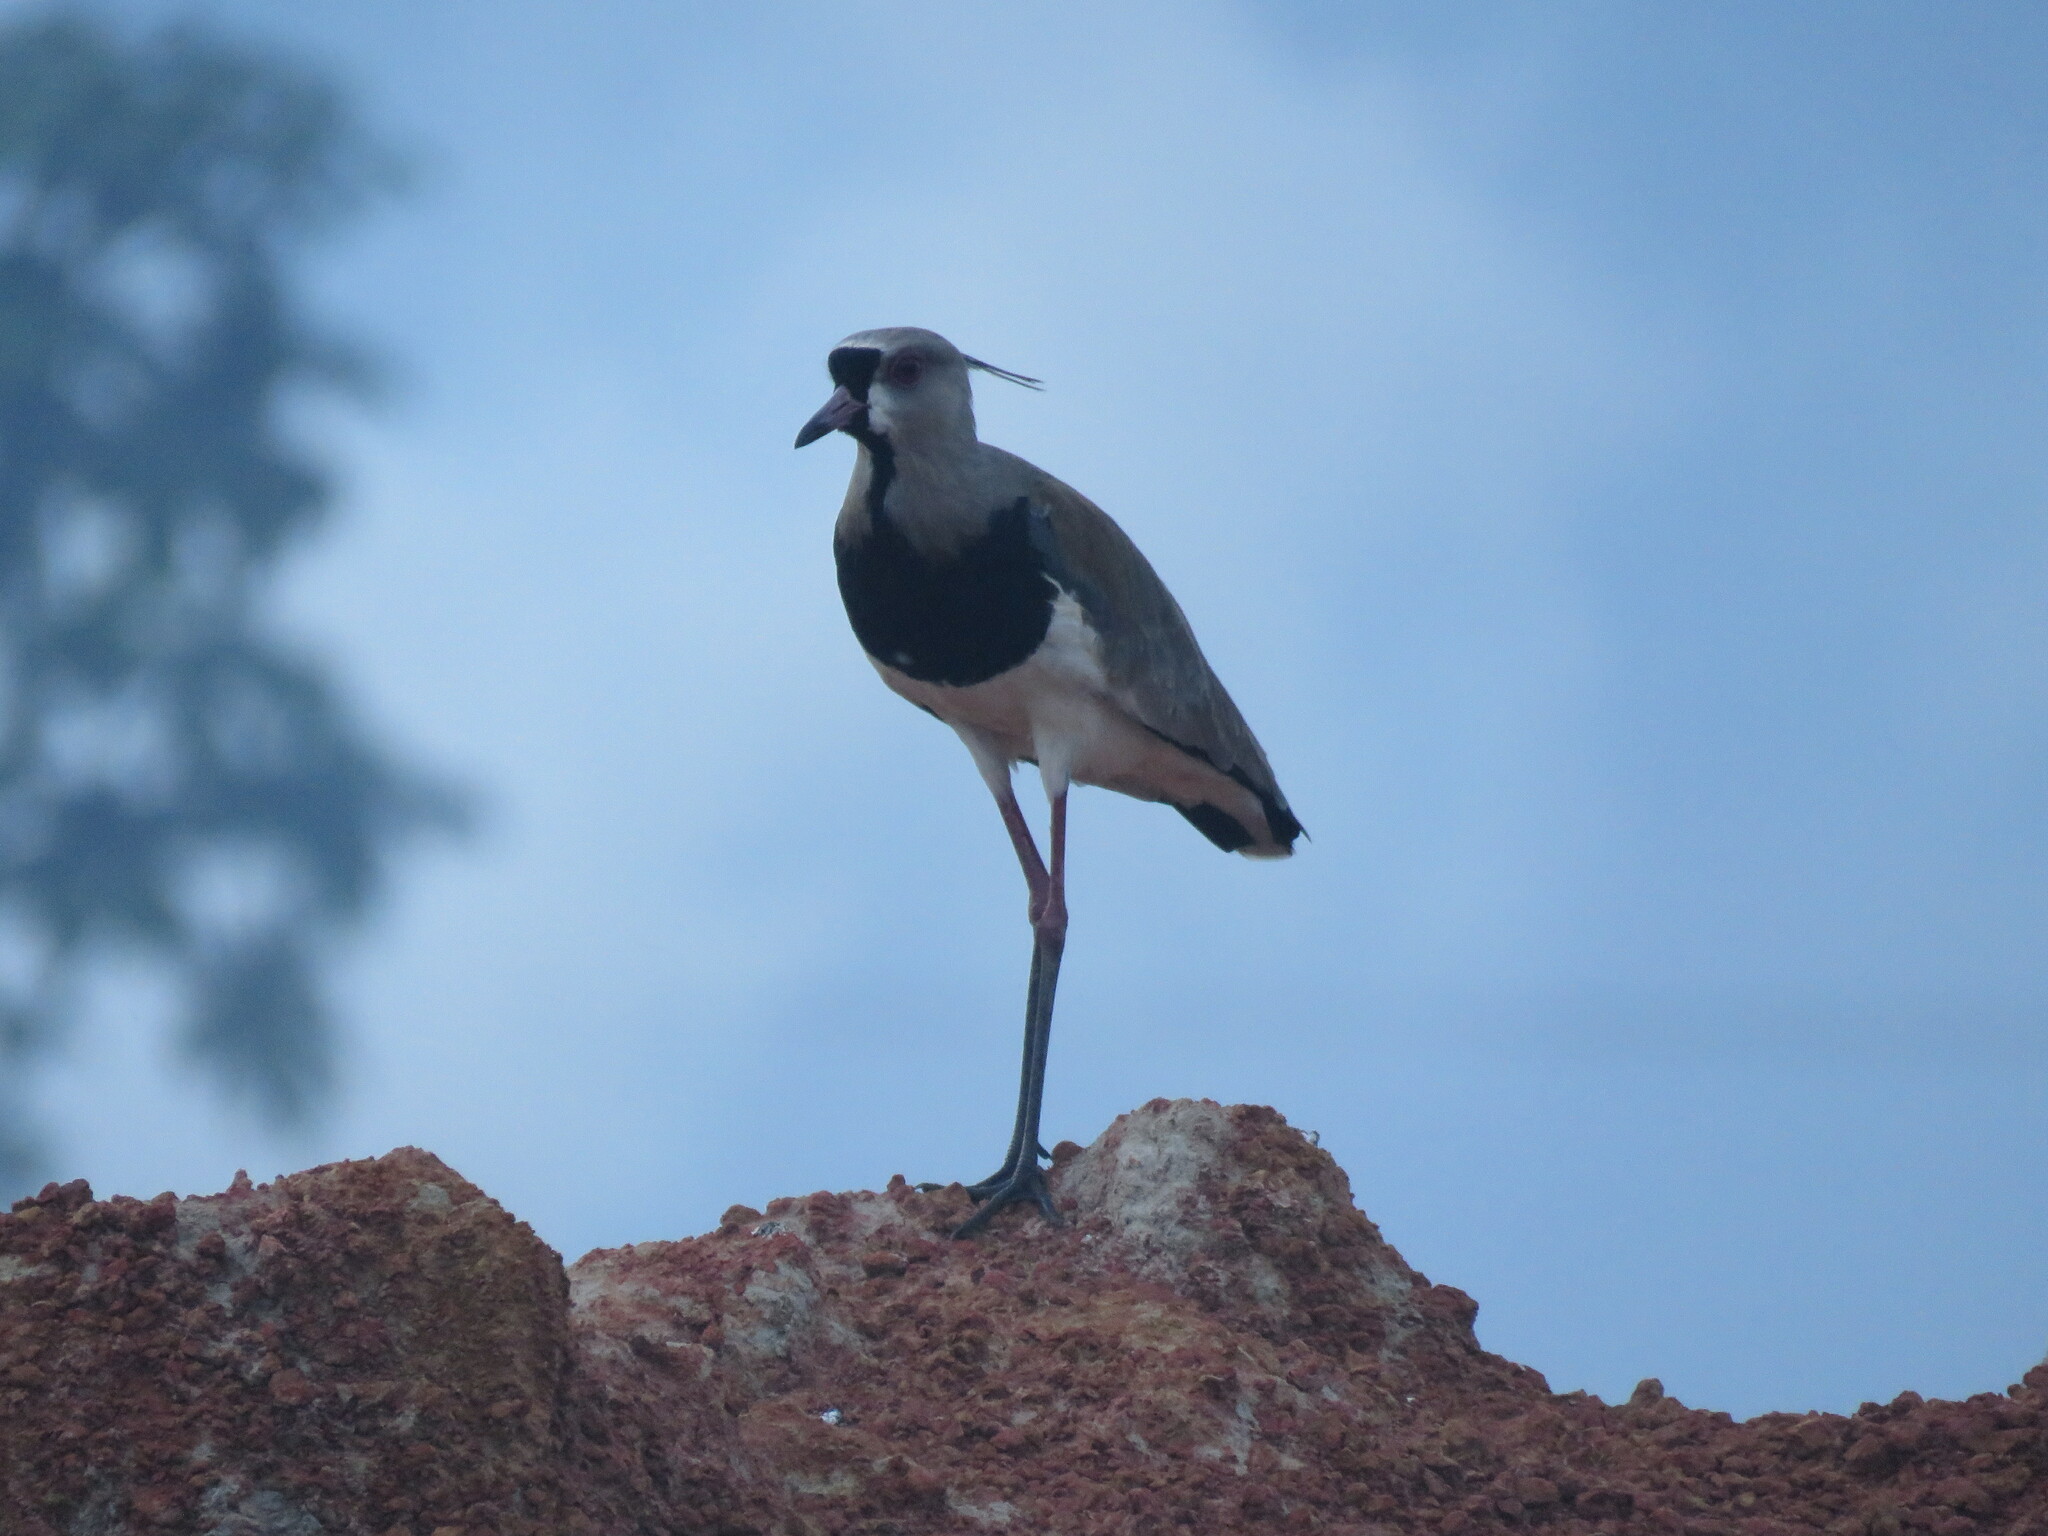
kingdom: Animalia
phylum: Chordata
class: Aves
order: Charadriiformes
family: Charadriidae
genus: Vanellus
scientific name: Vanellus chilensis
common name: Southern lapwing
